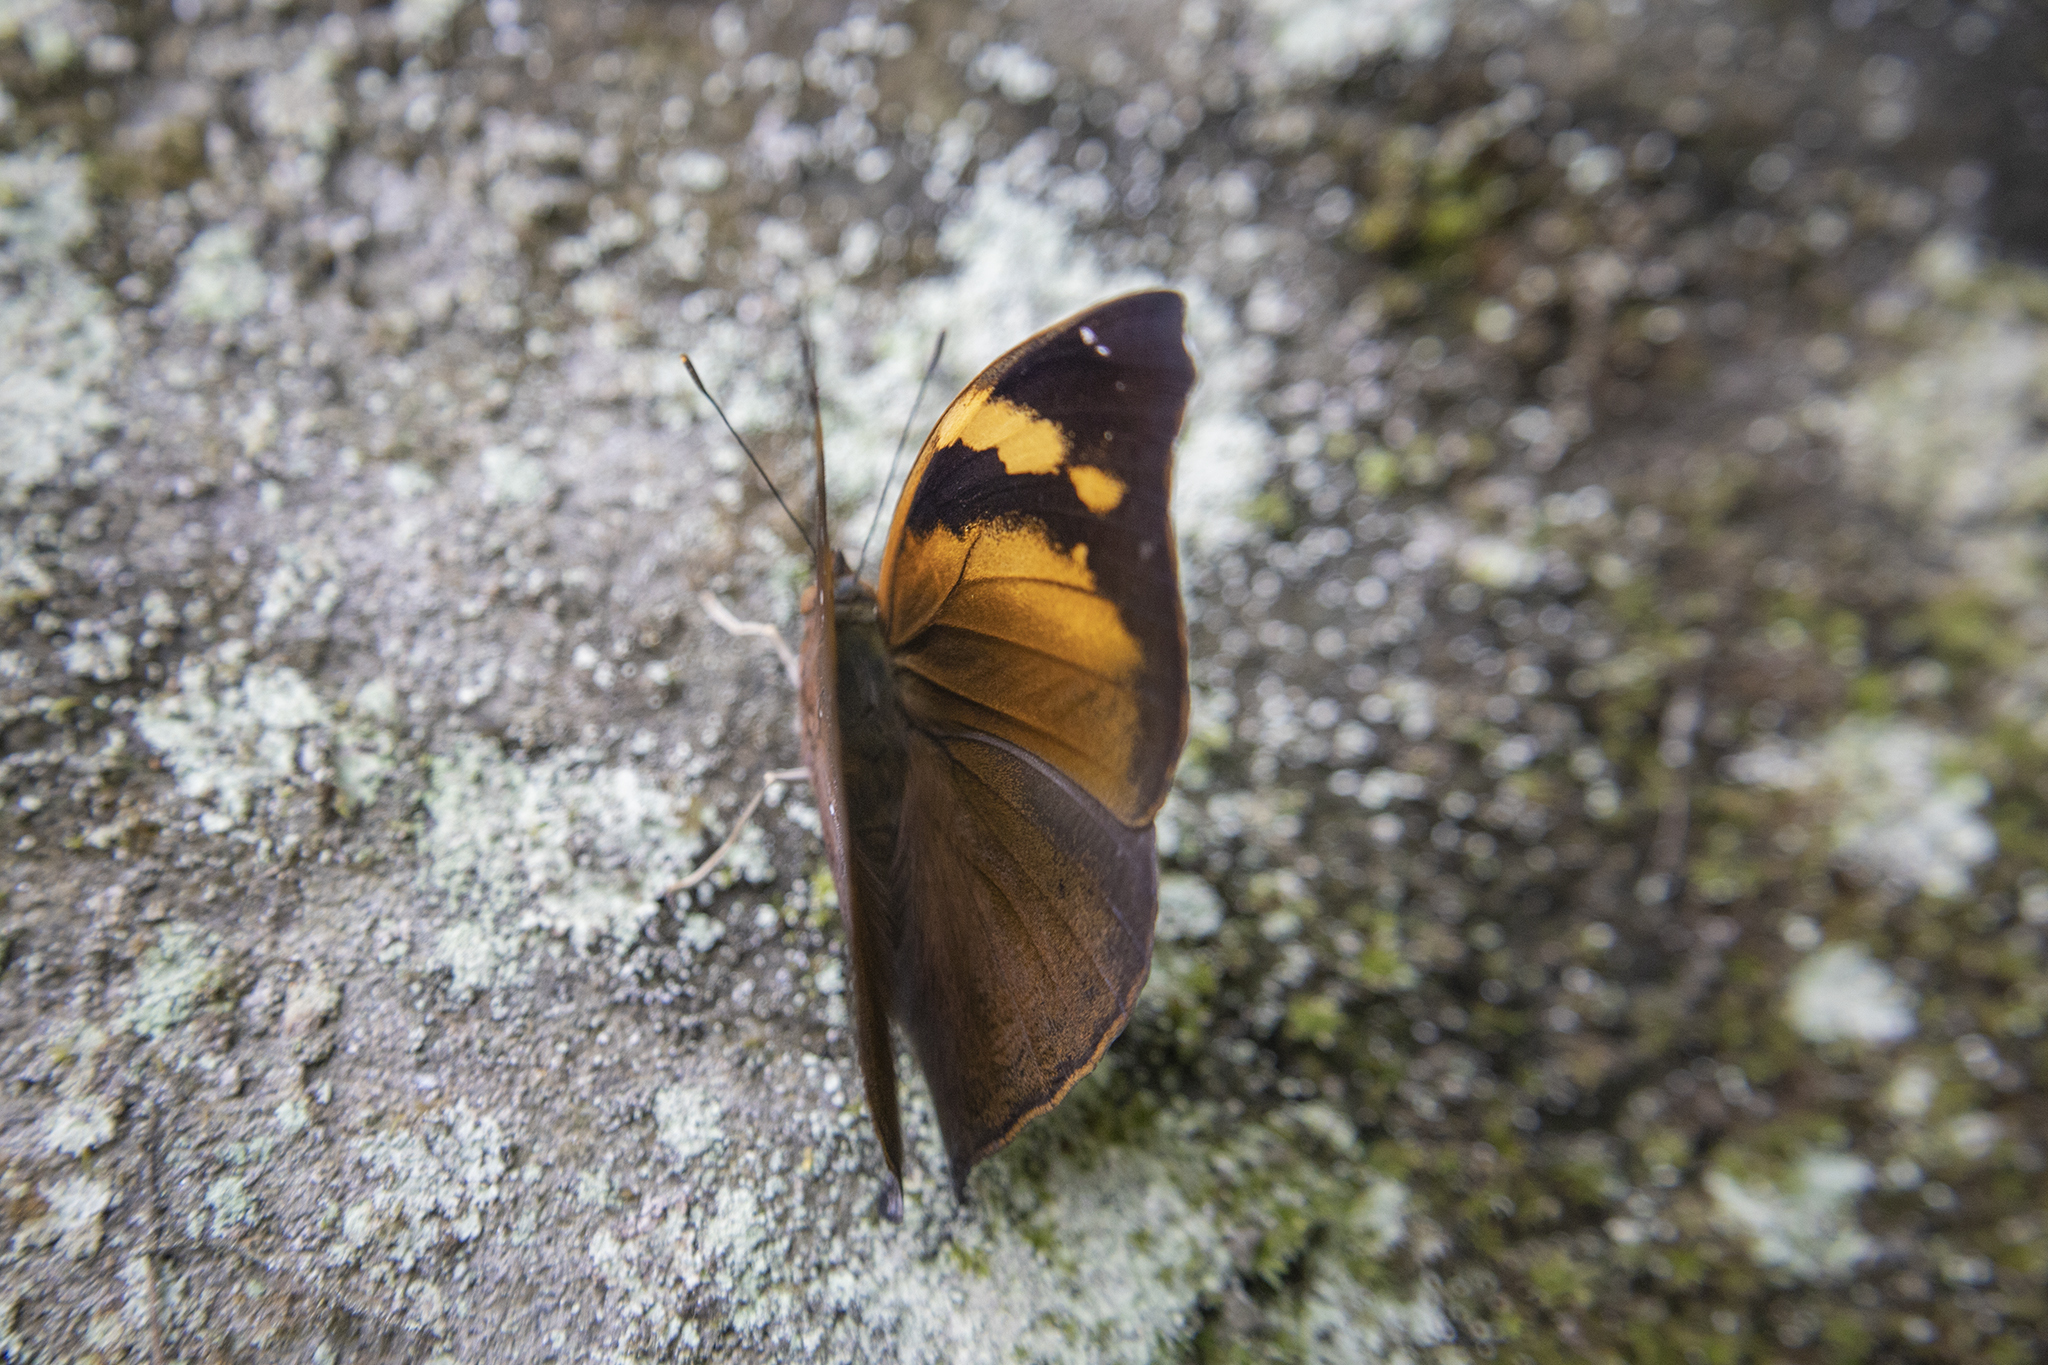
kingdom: Animalia
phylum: Arthropoda
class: Insecta
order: Lepidoptera
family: Nymphalidae
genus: Doleschallia
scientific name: Doleschallia bisaltide
